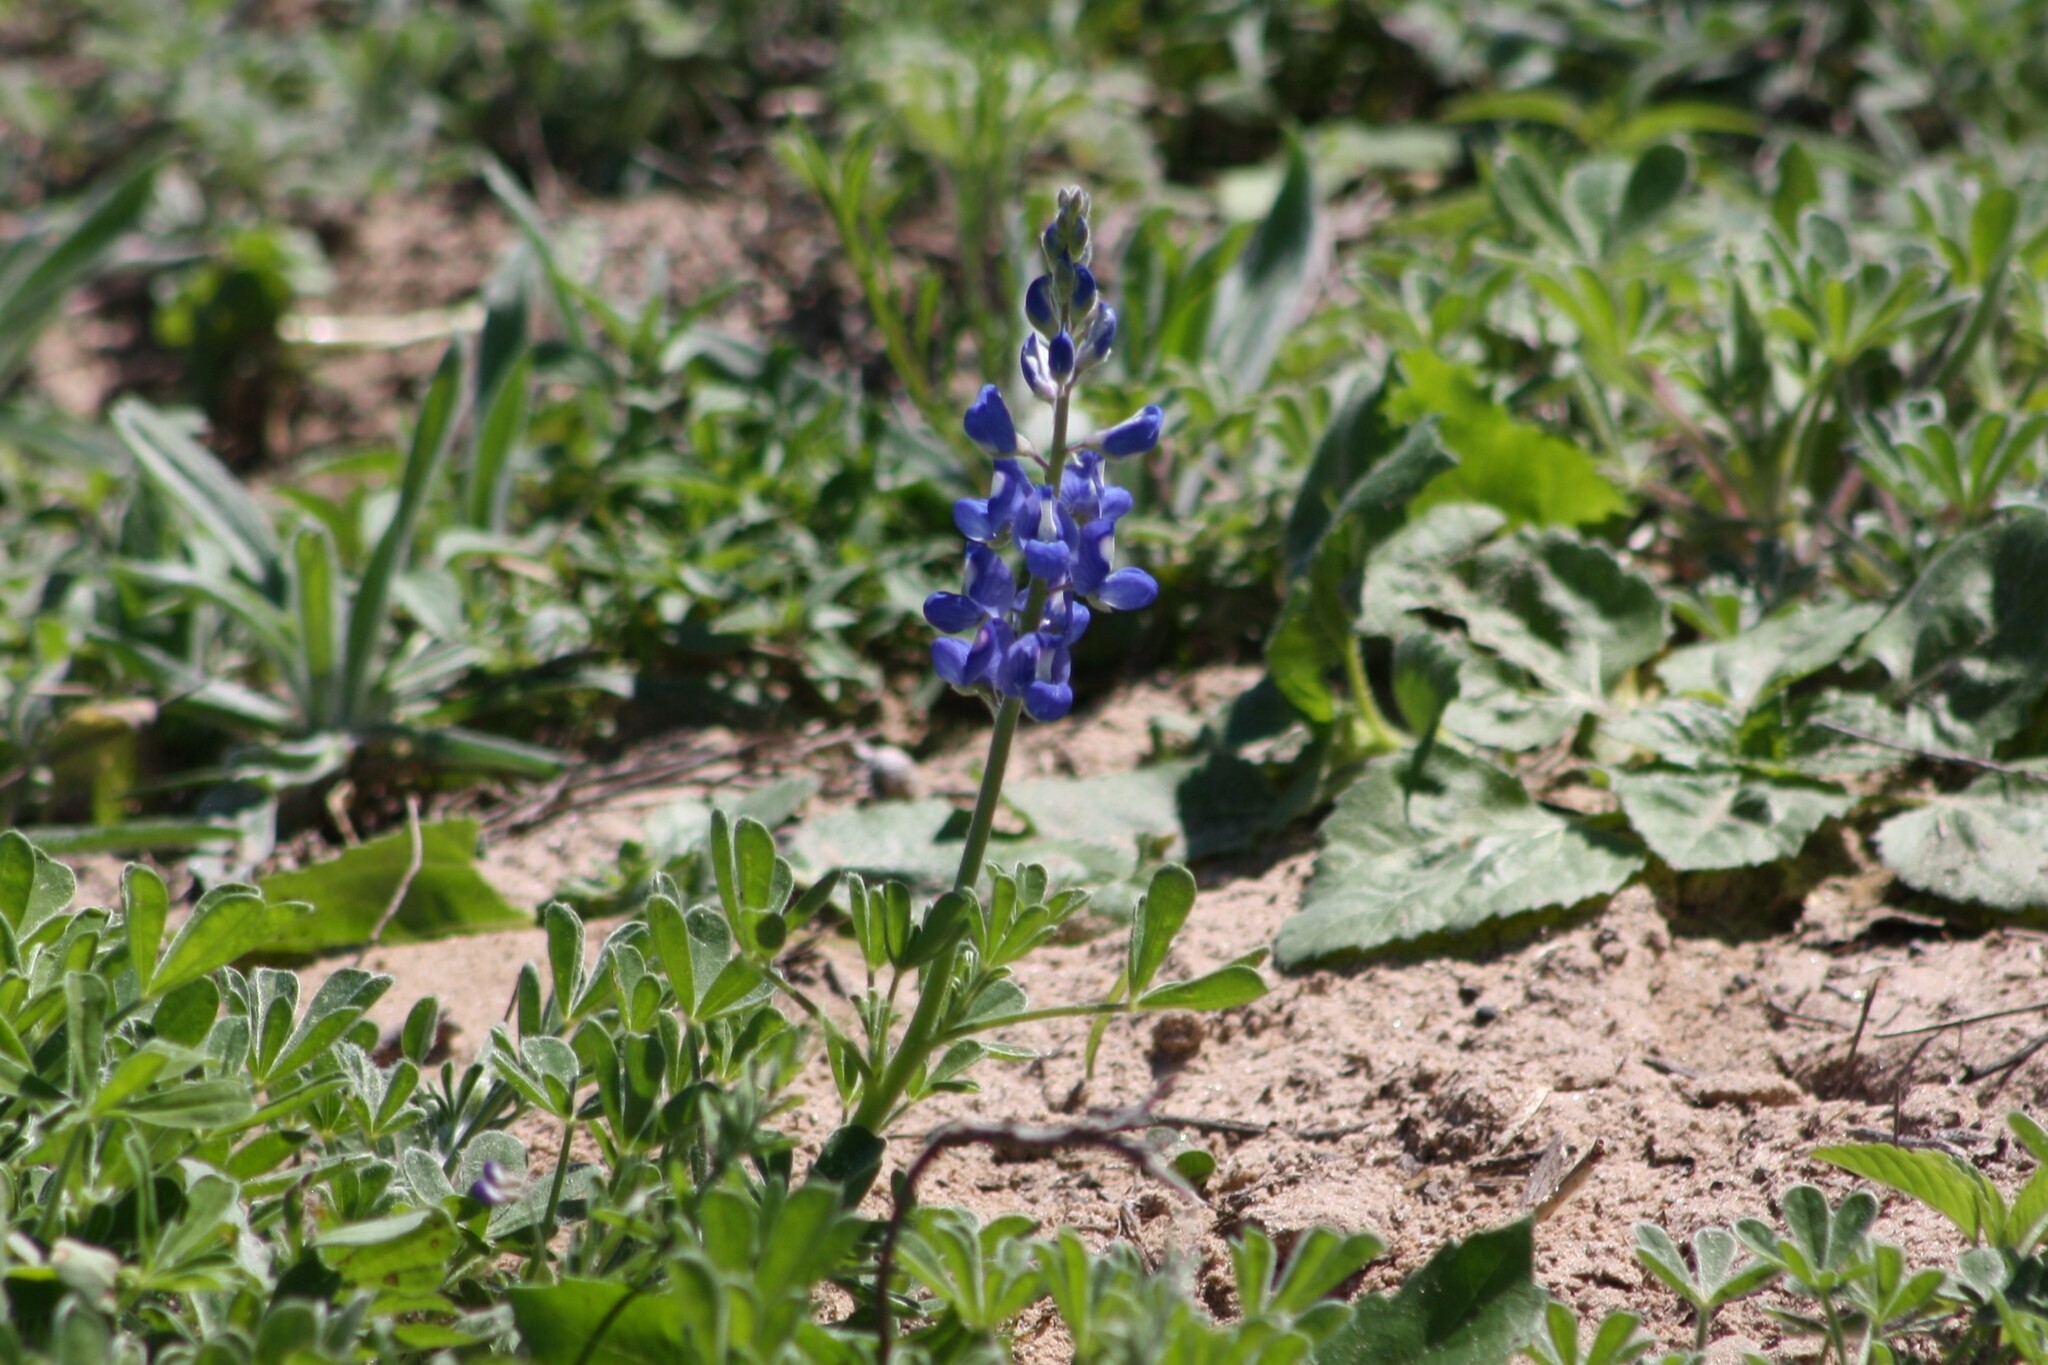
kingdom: Plantae
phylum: Tracheophyta
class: Magnoliopsida
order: Fabales
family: Fabaceae
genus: Lupinus
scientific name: Lupinus subcarnosus
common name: Texas bluebonnet
